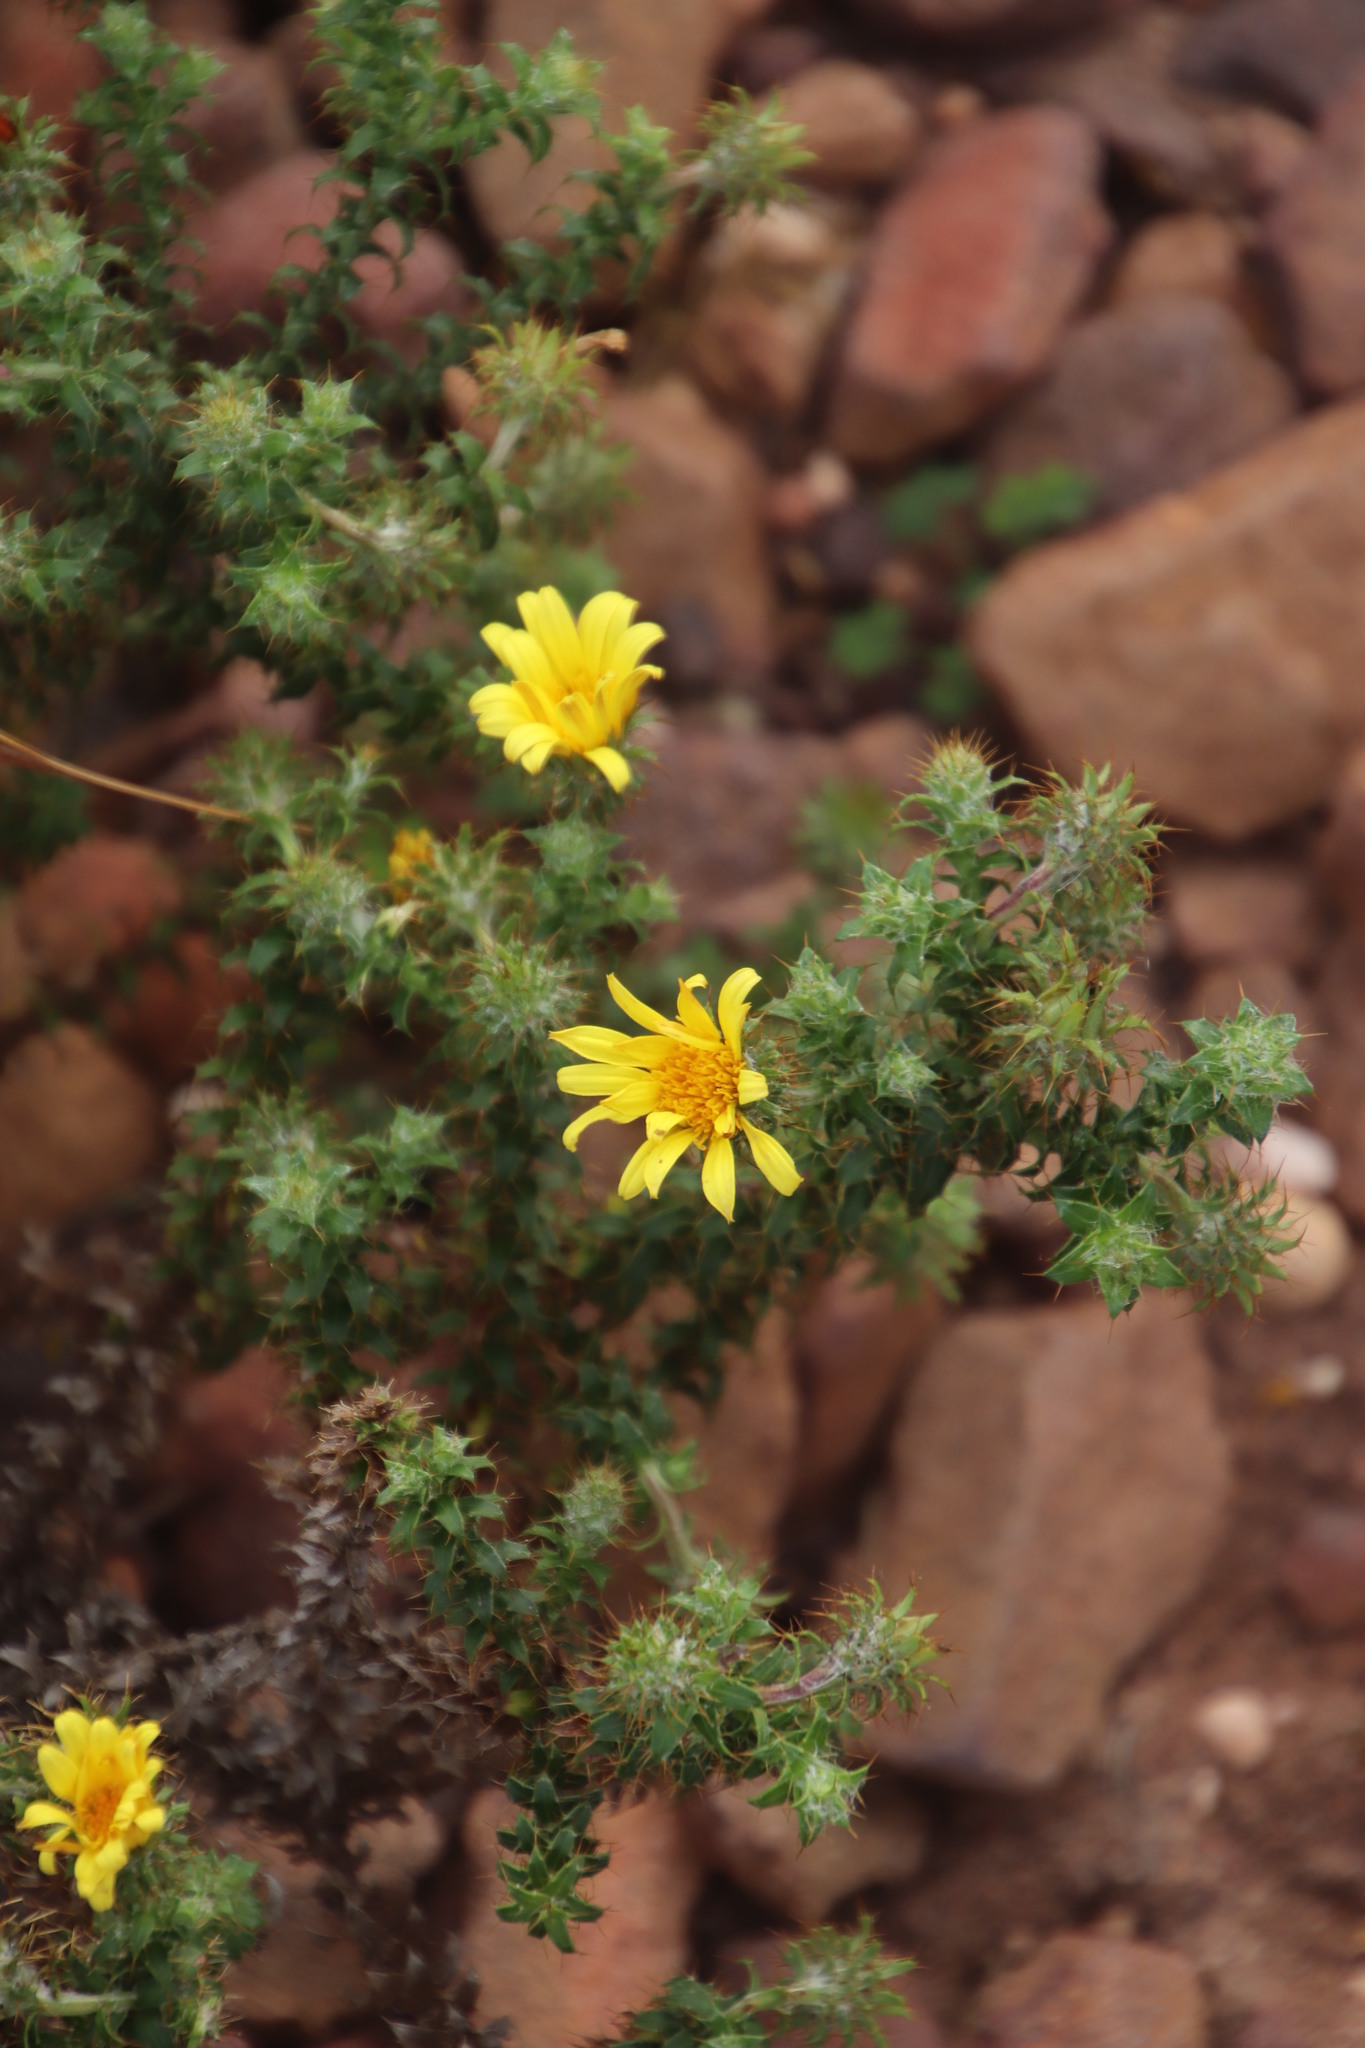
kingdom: Plantae
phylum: Tracheophyta
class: Magnoliopsida
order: Asterales
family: Asteraceae
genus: Cullumia
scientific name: Cullumia setosa
